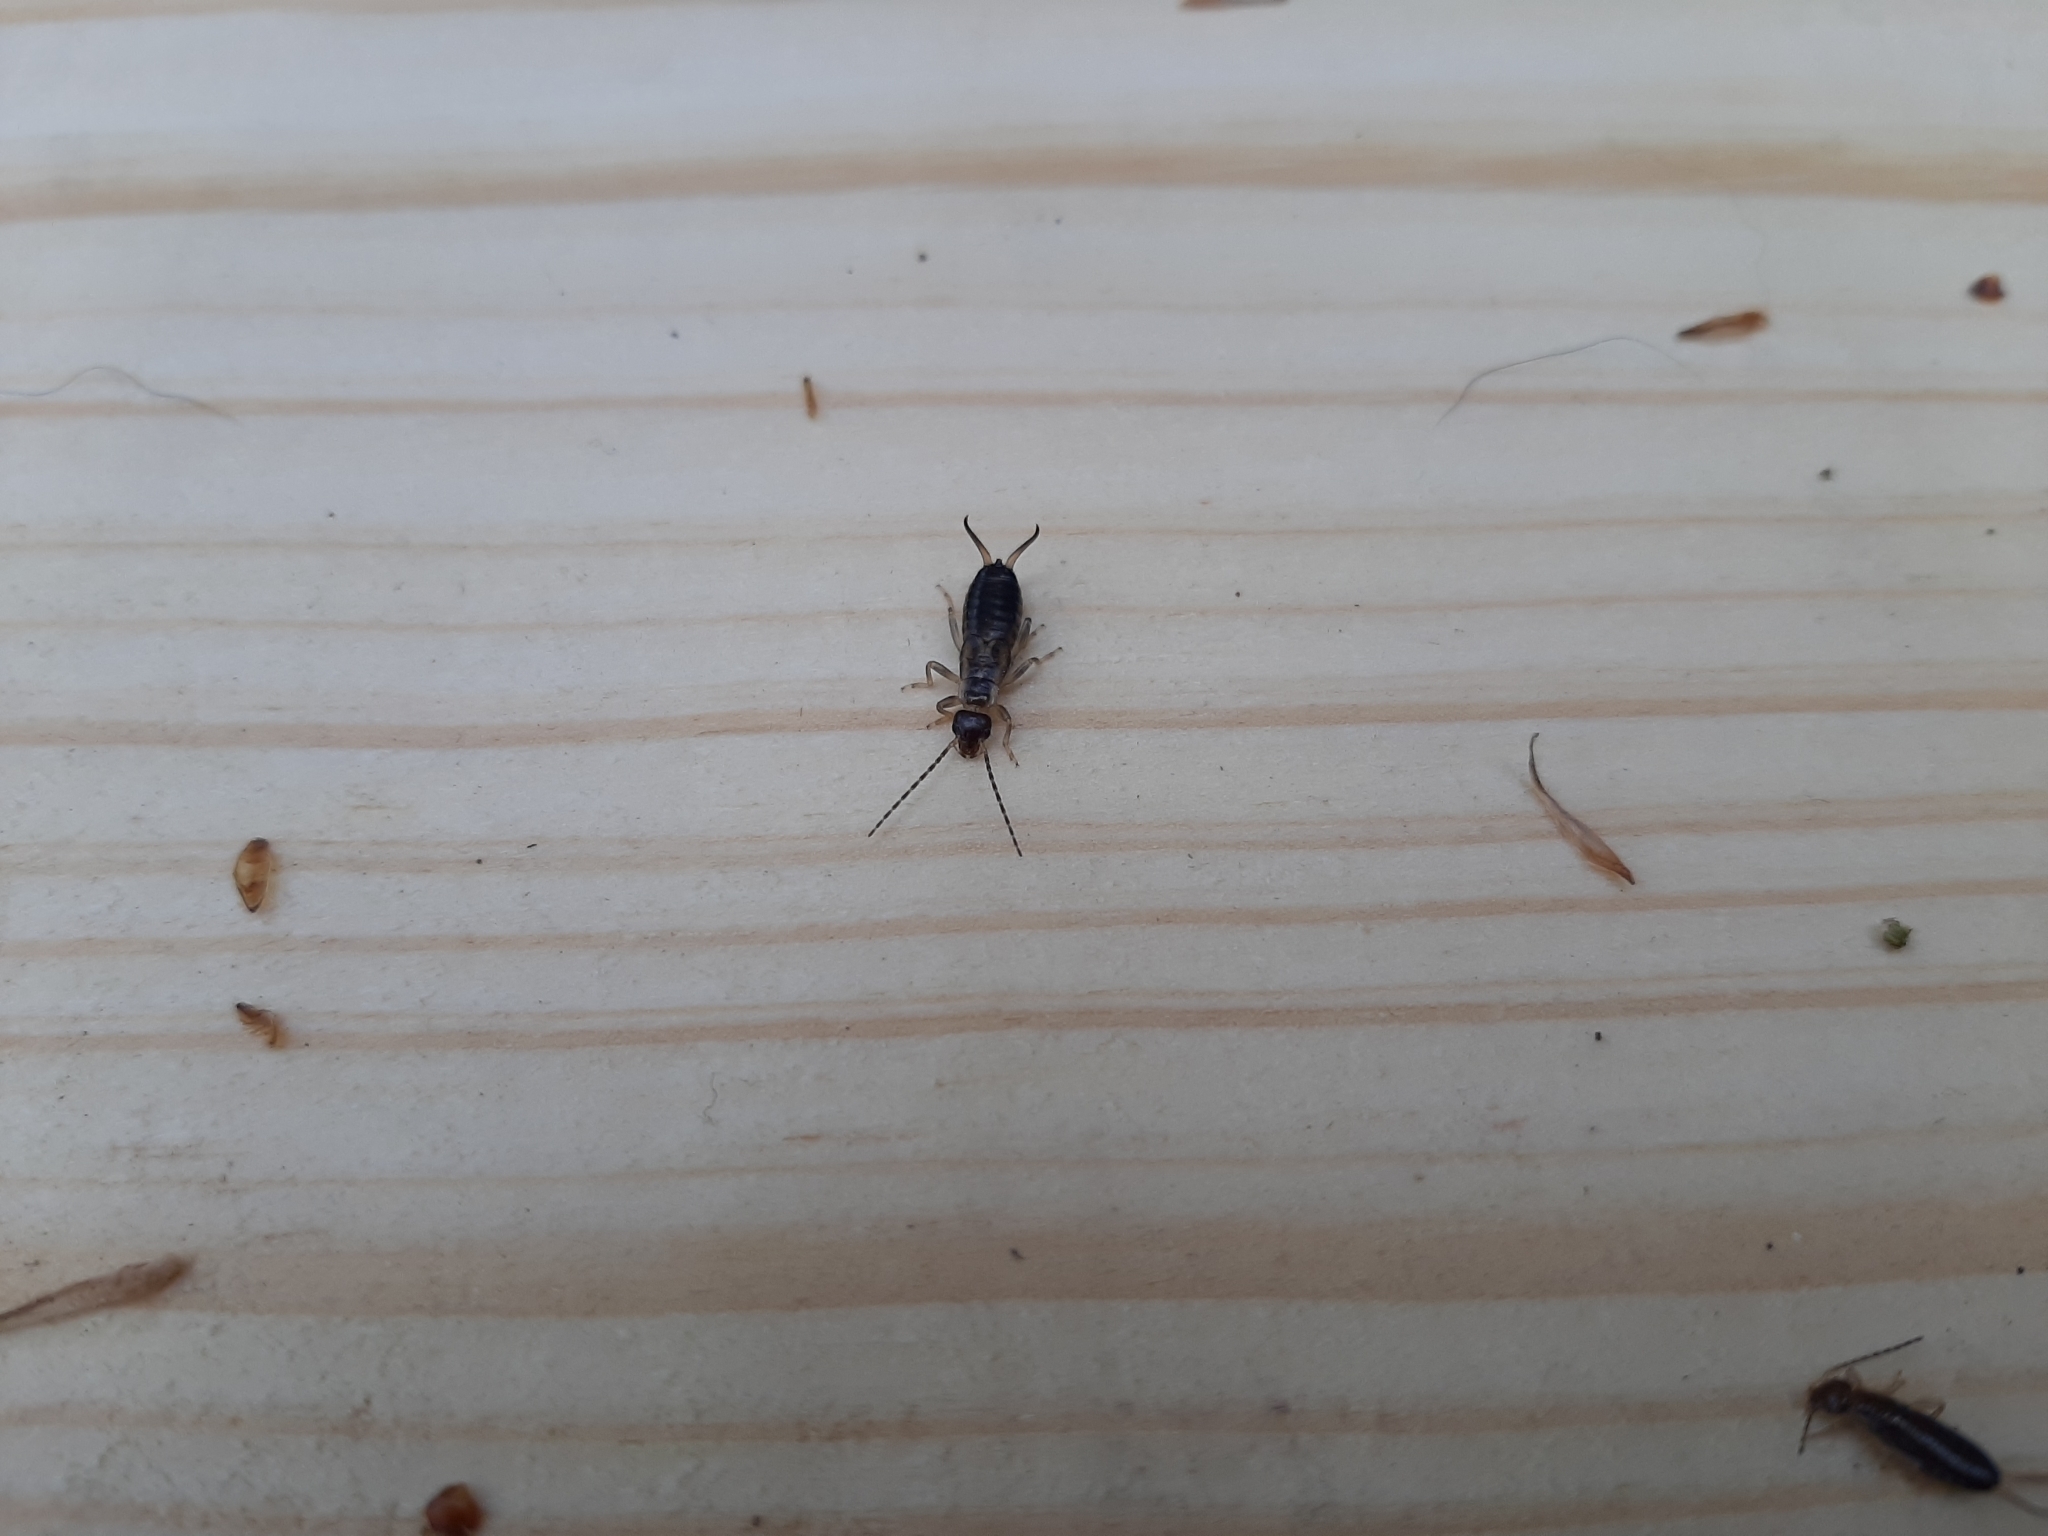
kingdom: Animalia
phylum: Arthropoda
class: Insecta
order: Dermaptera
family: Forficulidae
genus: Forficula
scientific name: Forficula
